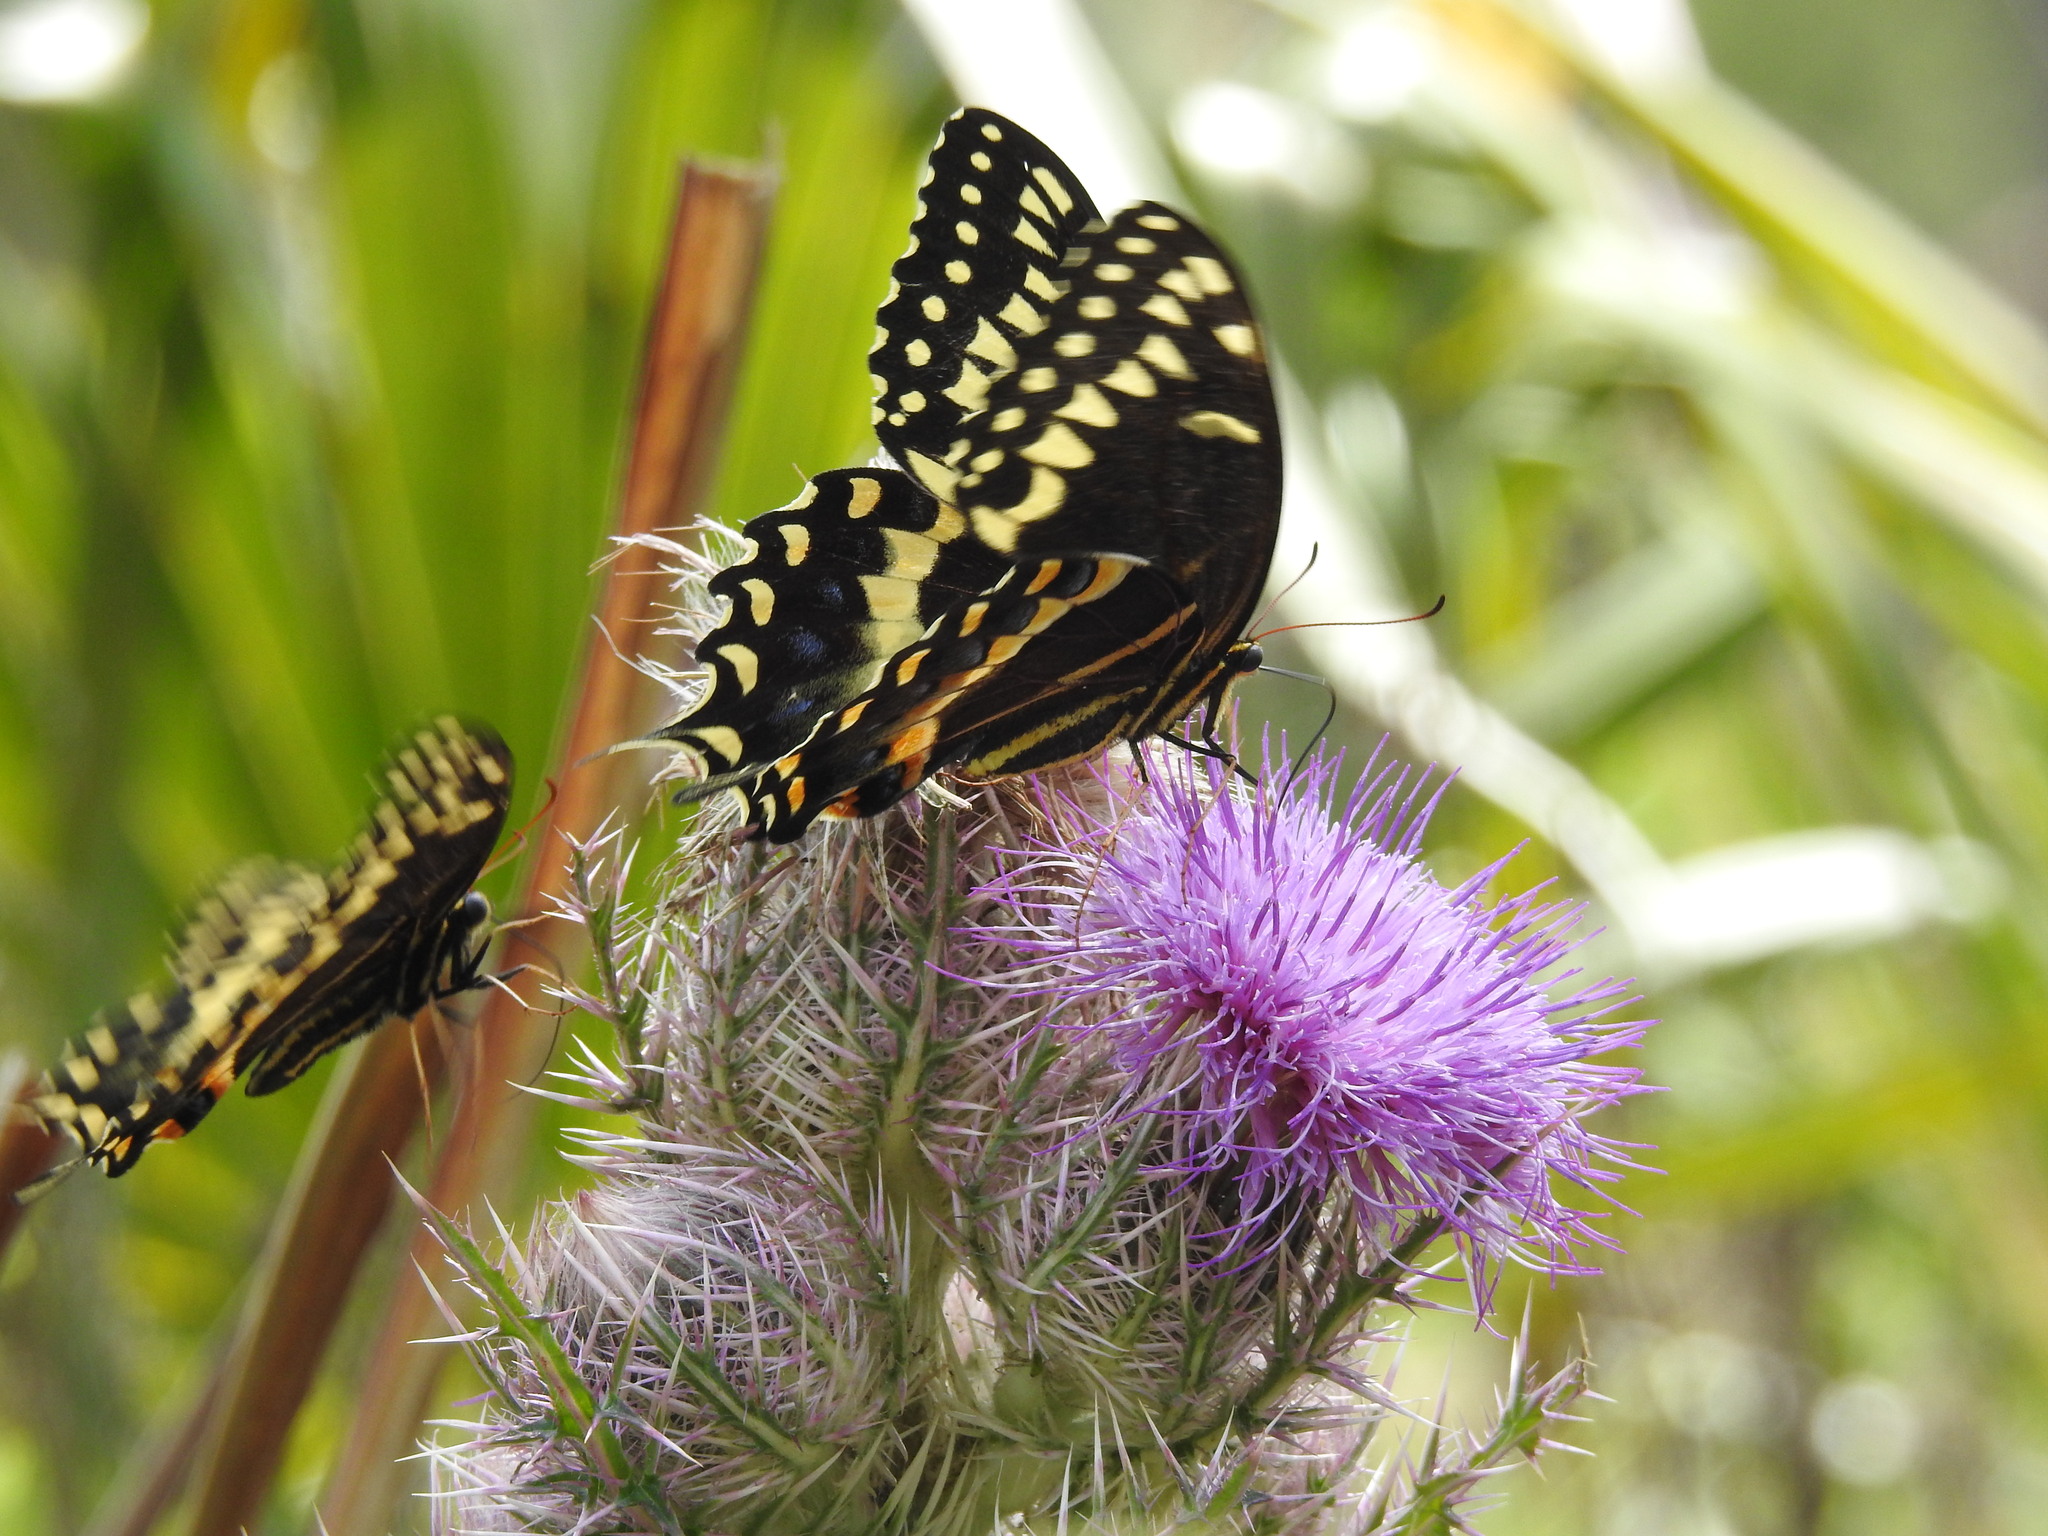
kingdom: Animalia
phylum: Arthropoda
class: Insecta
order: Lepidoptera
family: Papilionidae
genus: Papilio
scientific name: Papilio palamedes
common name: Palamedes swallowtail
